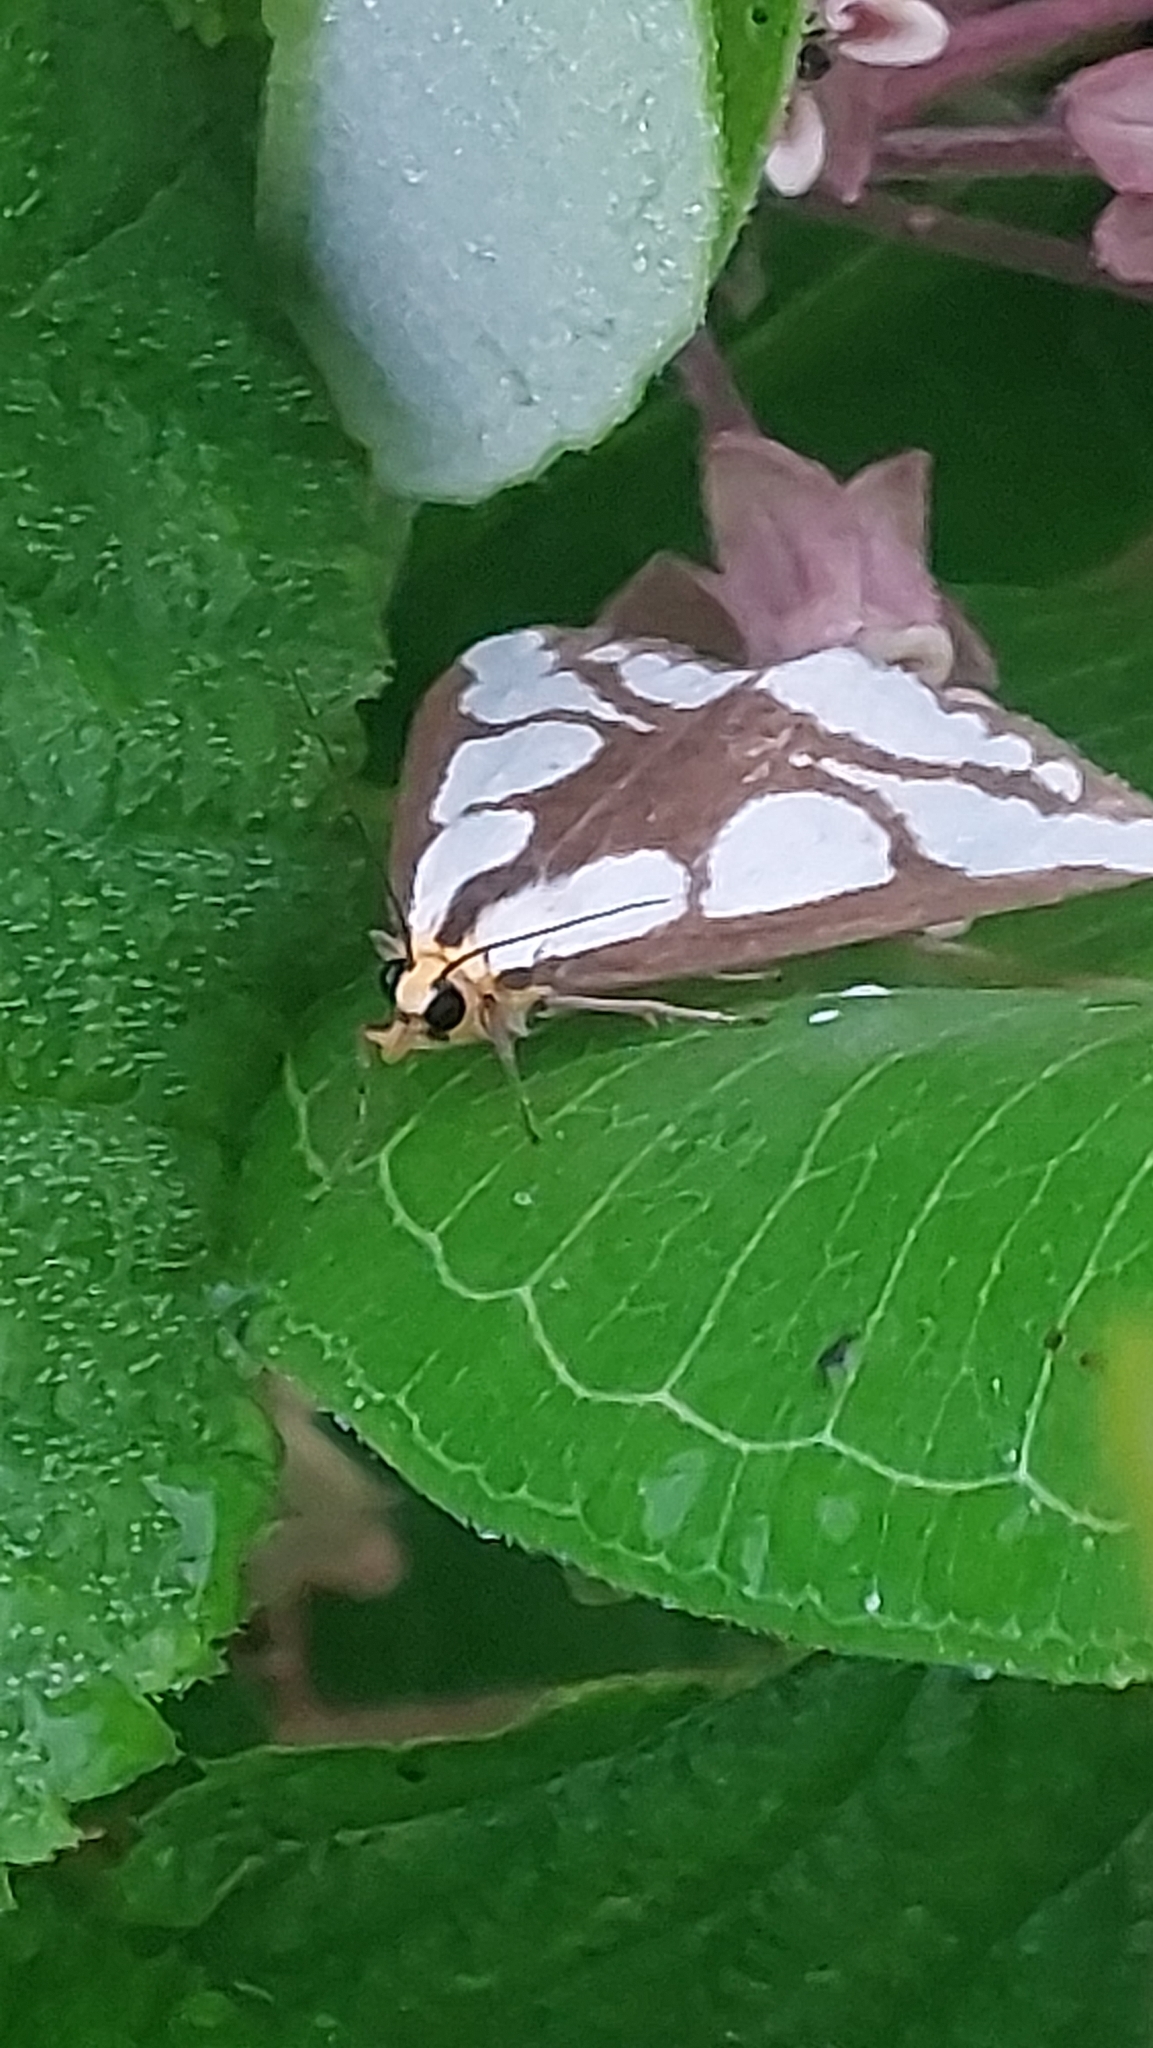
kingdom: Animalia
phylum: Arthropoda
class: Insecta
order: Lepidoptera
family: Erebidae
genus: Haploa
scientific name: Haploa lecontei
